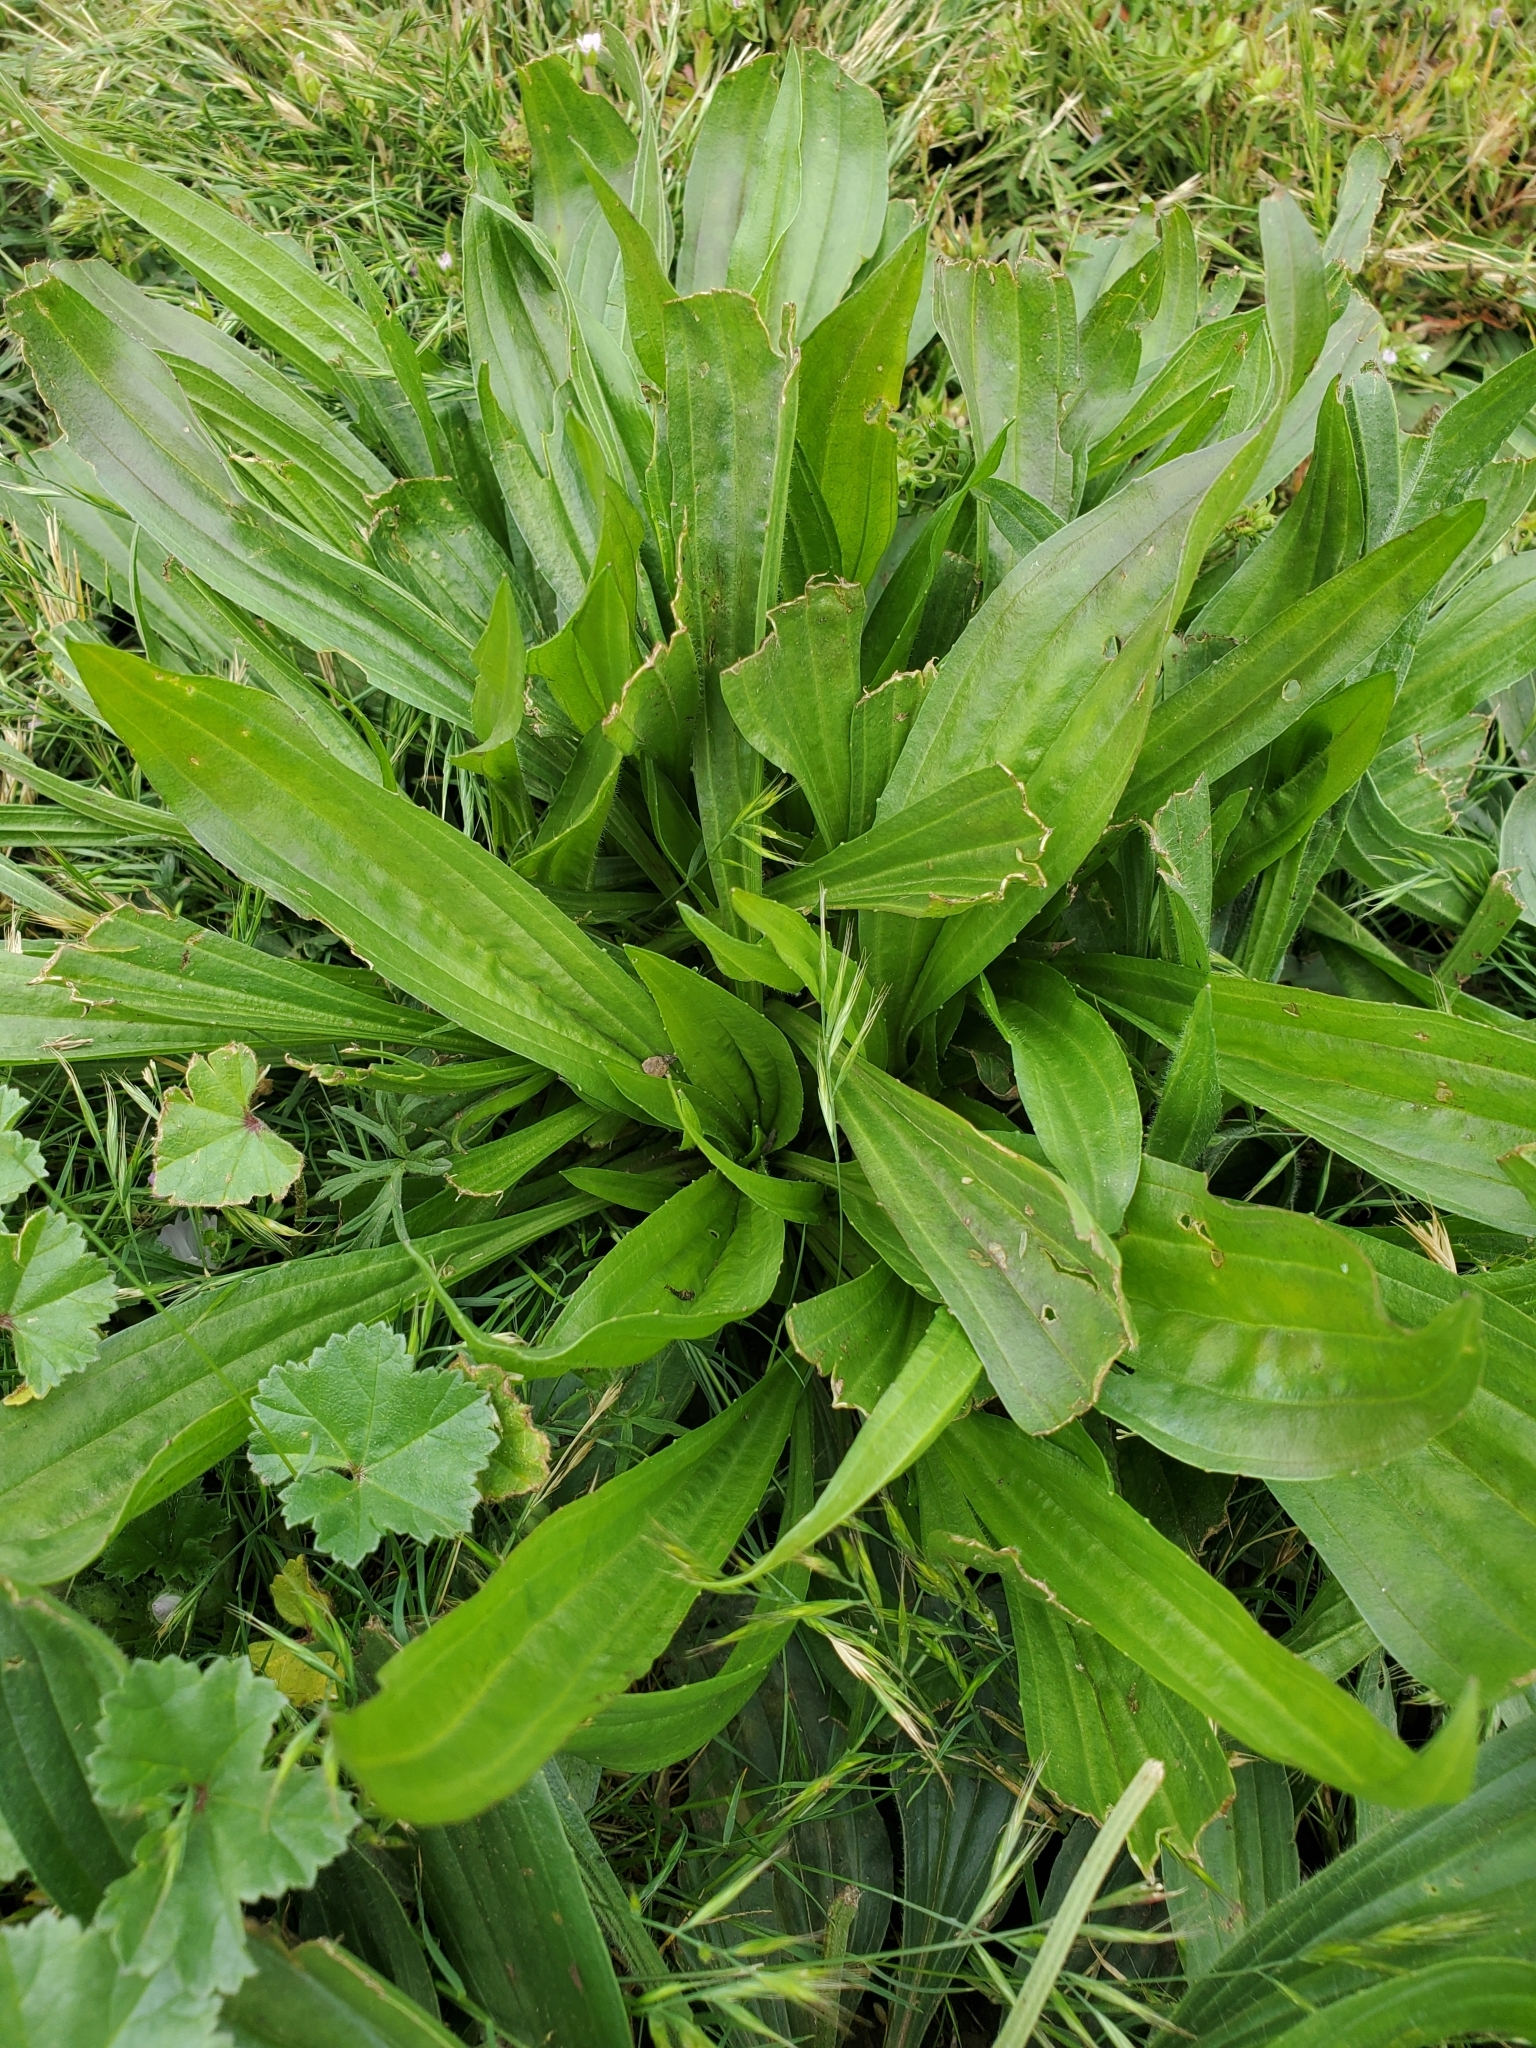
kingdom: Plantae
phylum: Tracheophyta
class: Magnoliopsida
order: Lamiales
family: Plantaginaceae
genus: Plantago
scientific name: Plantago lanceolata
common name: Ribwort plantain
